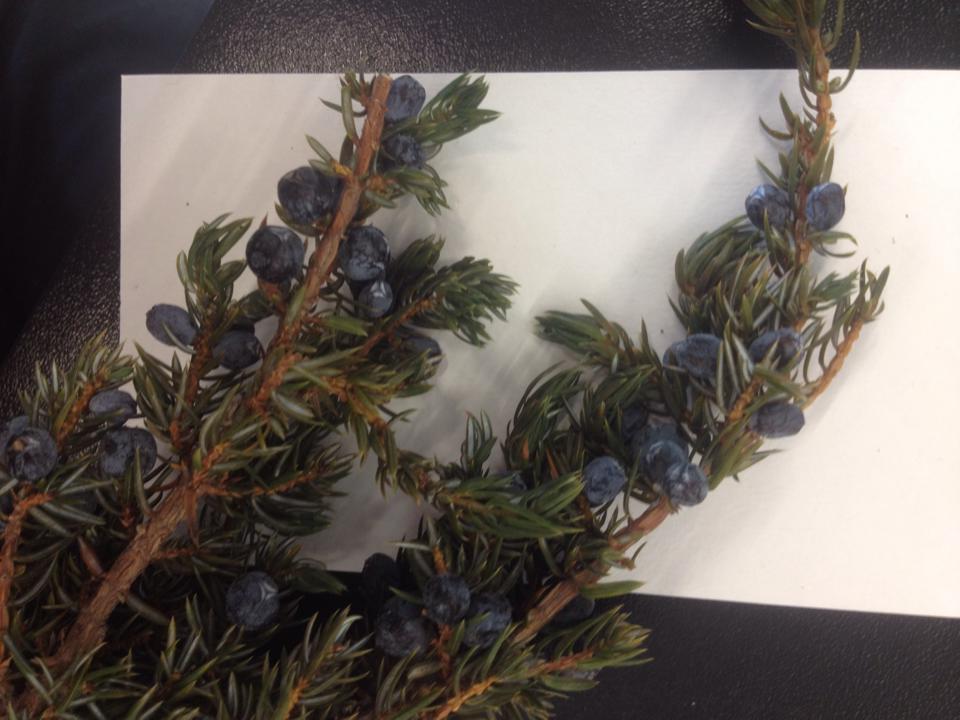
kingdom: Plantae
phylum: Tracheophyta
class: Pinopsida
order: Pinales
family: Cupressaceae
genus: Juniperus
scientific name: Juniperus communis
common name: Common juniper
